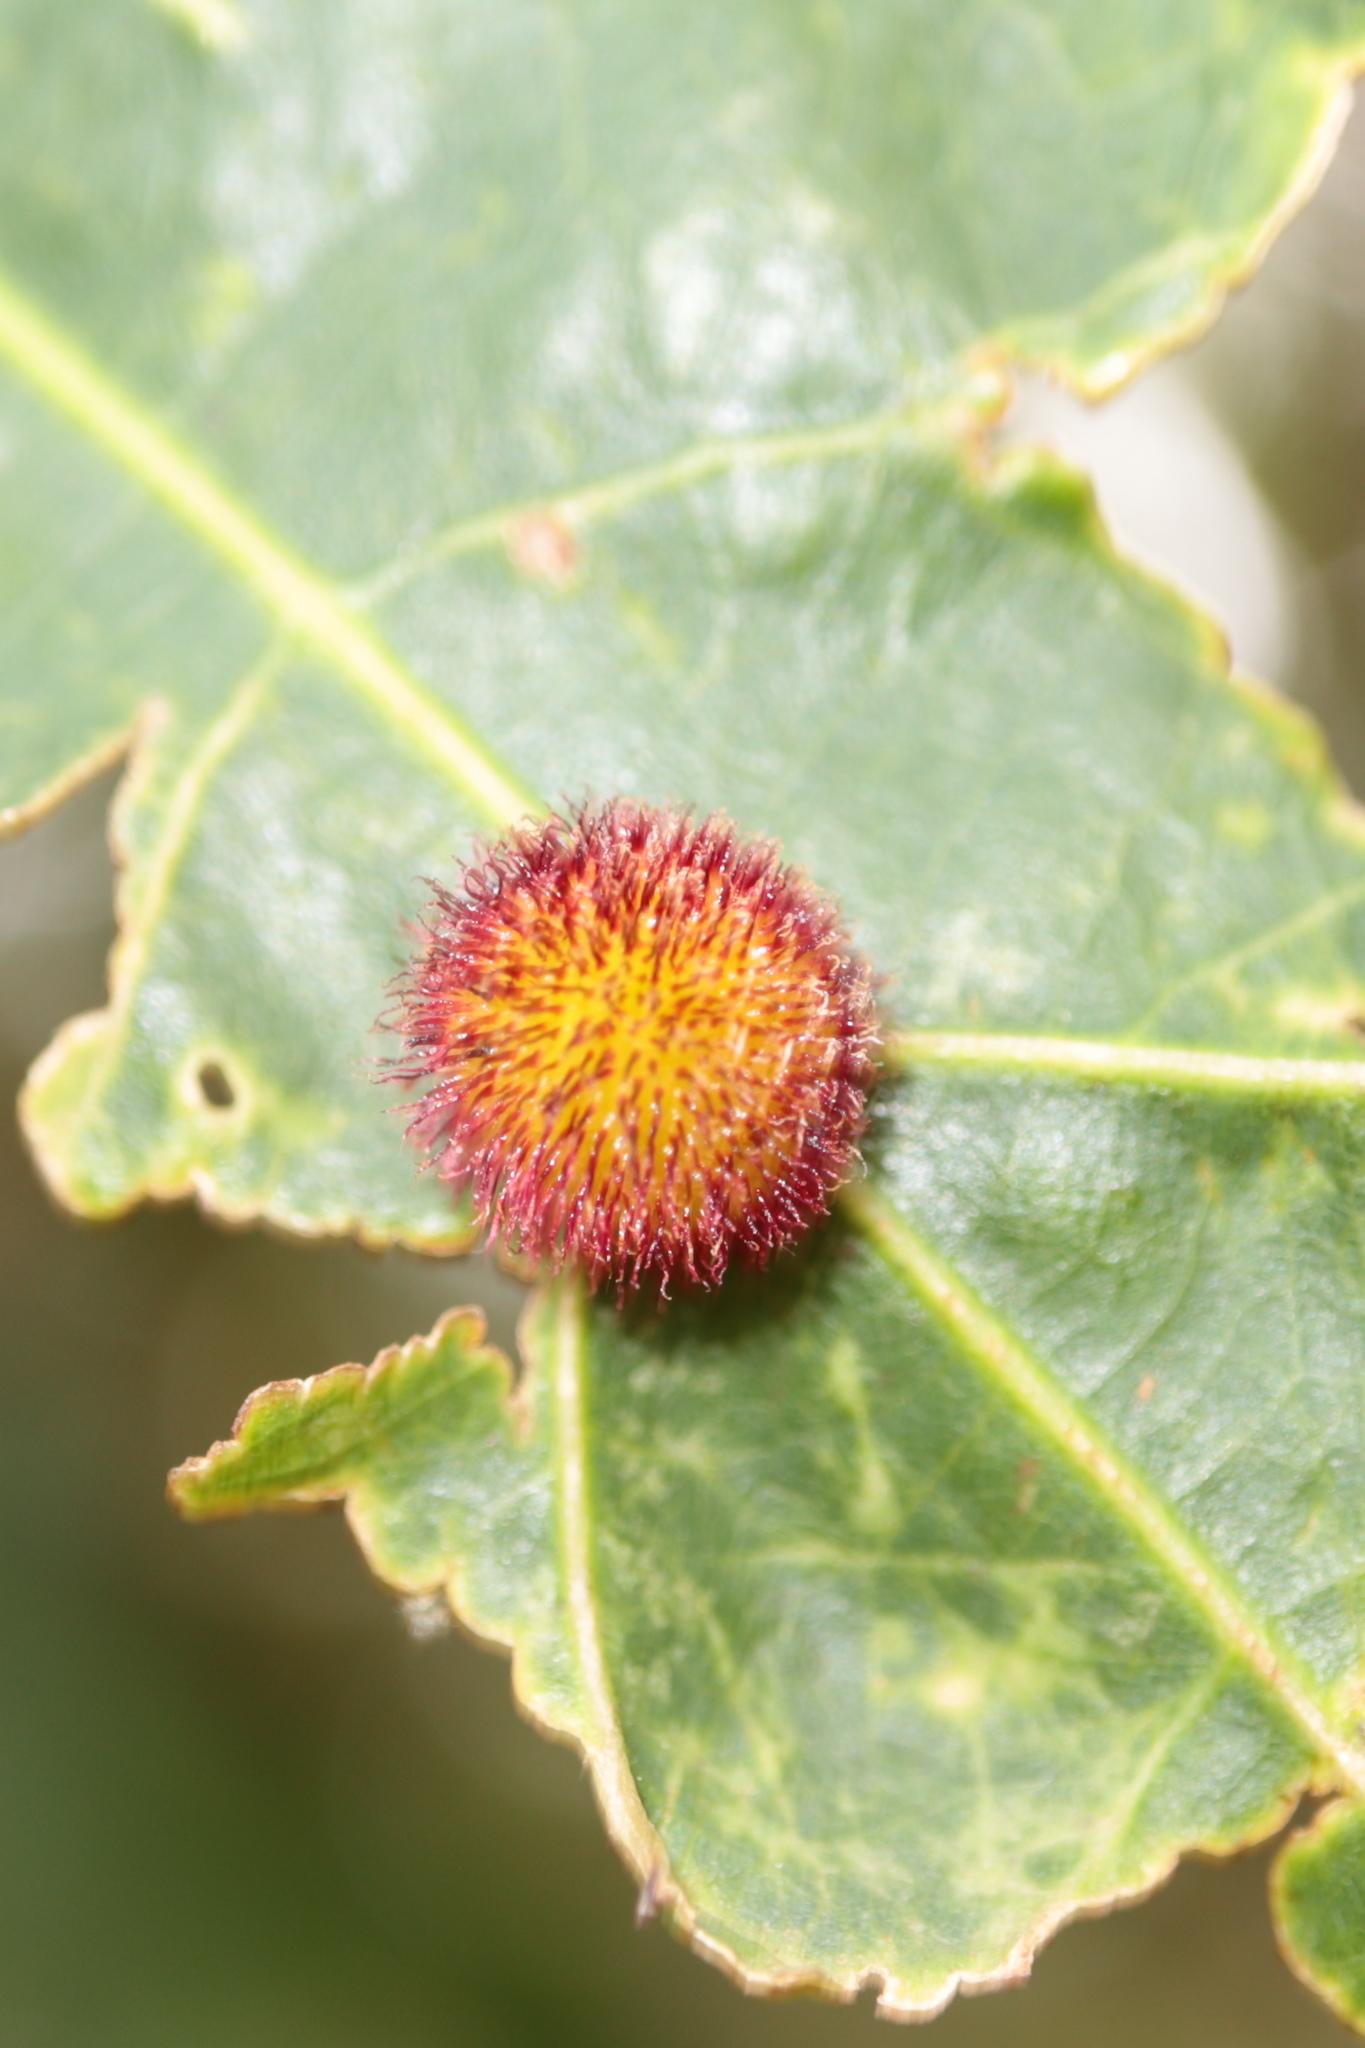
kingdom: Animalia
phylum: Arthropoda
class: Insecta
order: Hymenoptera
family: Cynipidae
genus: Acraspis
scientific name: Acraspis erinacei
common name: Hedgehog gall wasp
